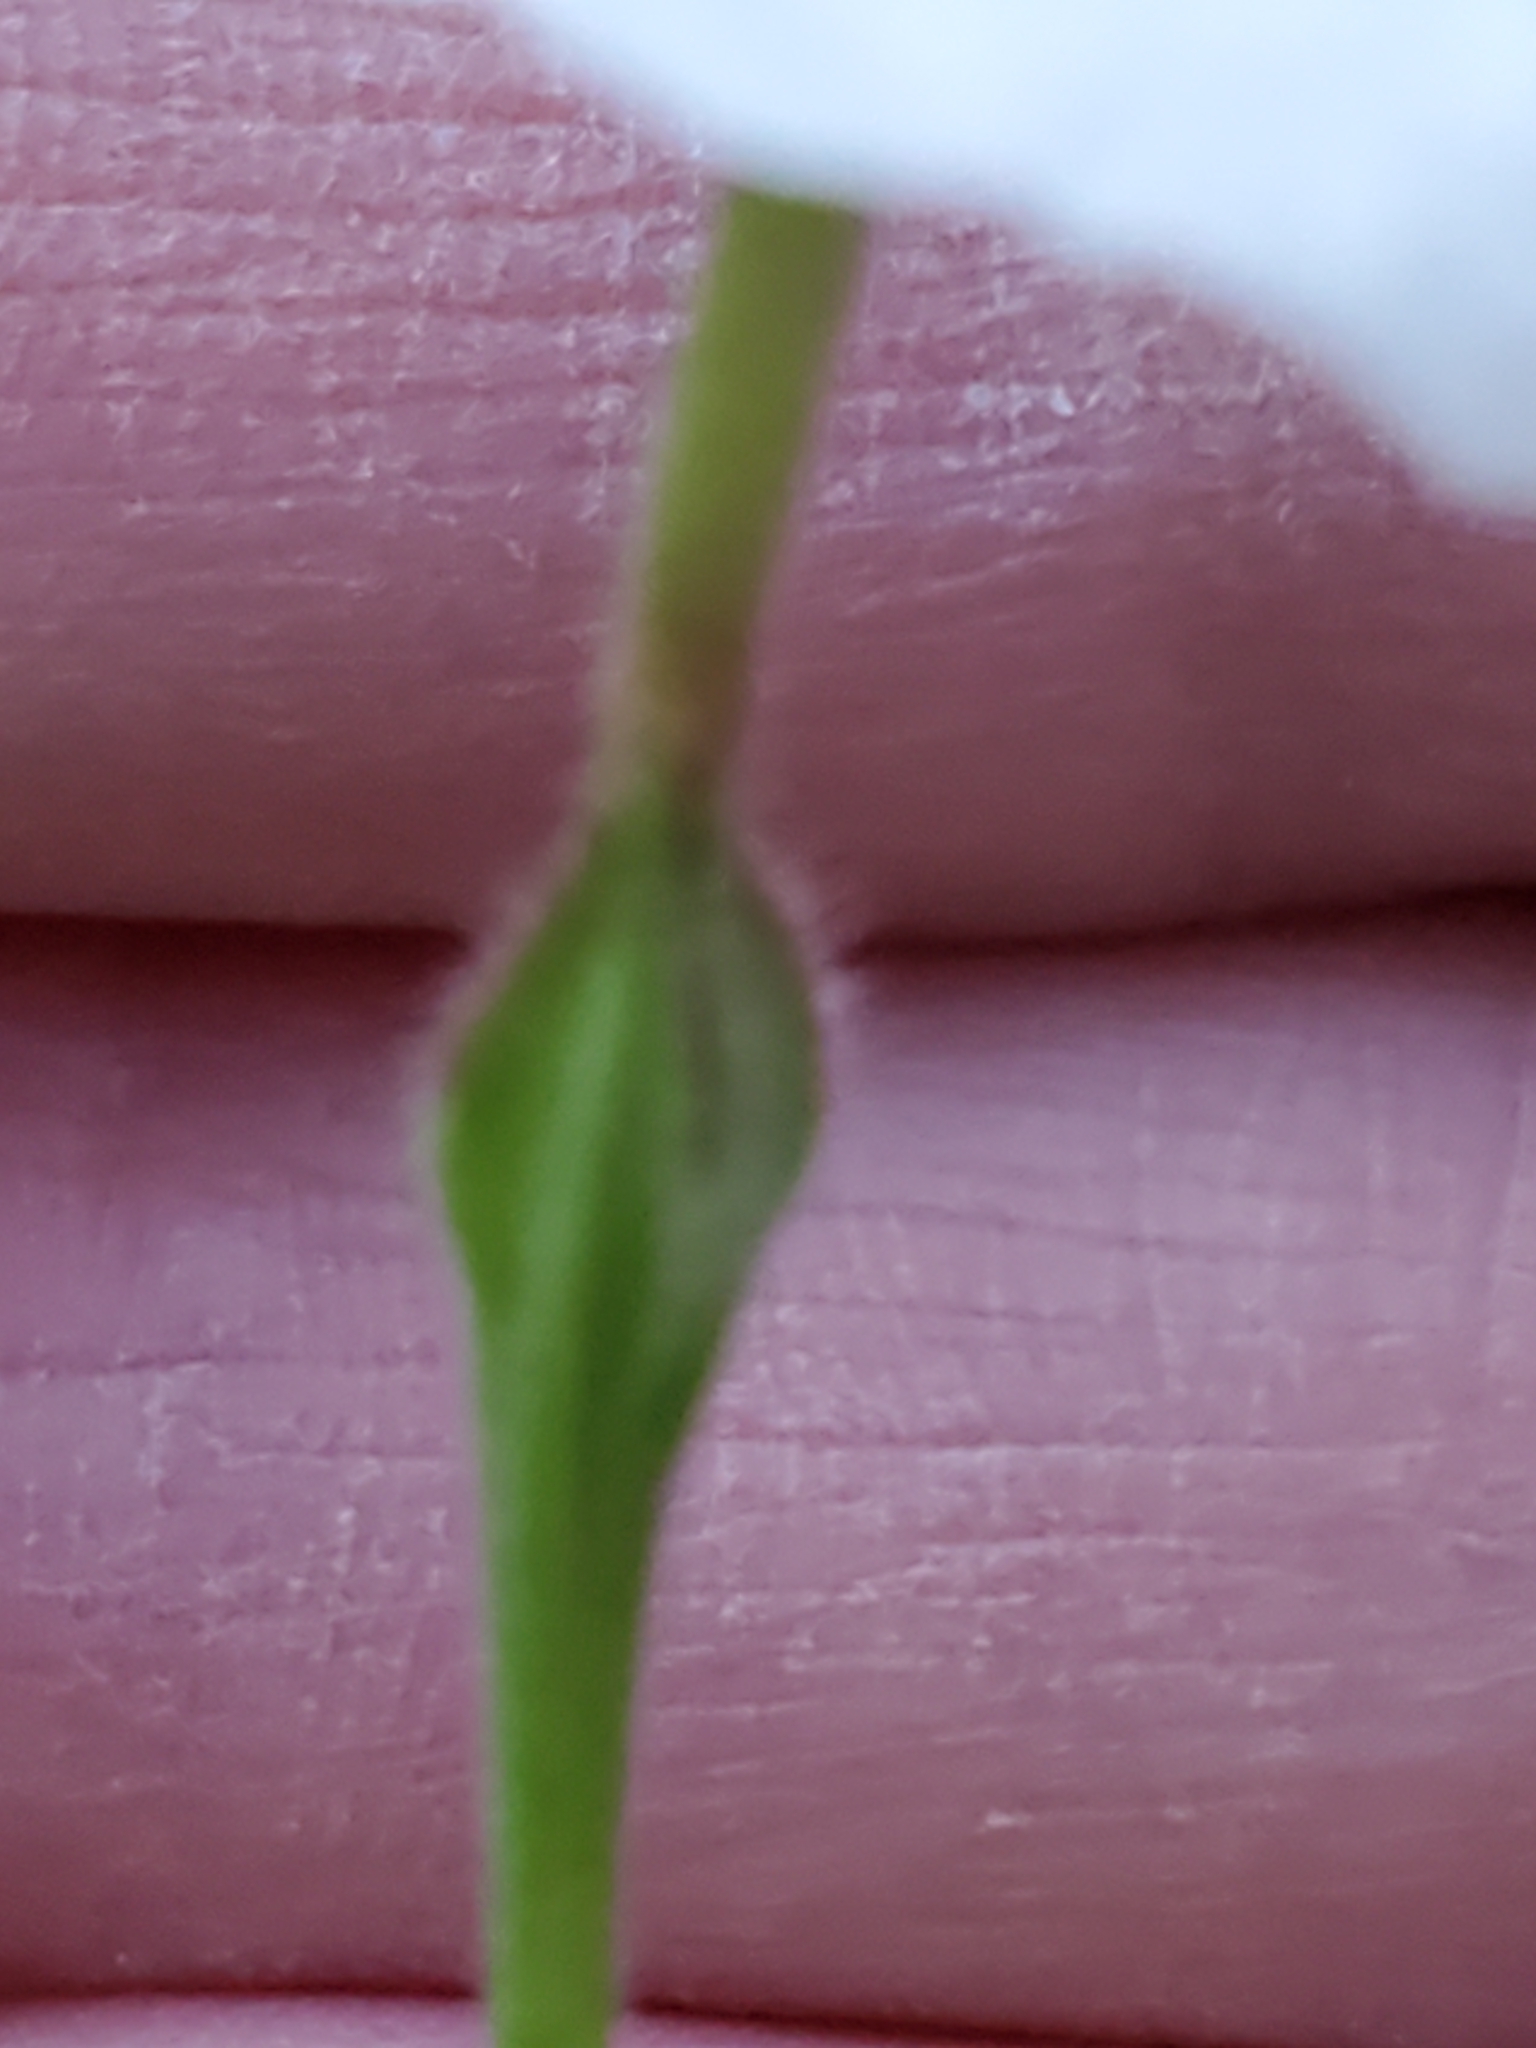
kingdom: Plantae
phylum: Tracheophyta
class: Magnoliopsida
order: Myrtales
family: Onagraceae
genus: Oenothera
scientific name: Oenothera tetraptera
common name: Four-wing evening-primrose
